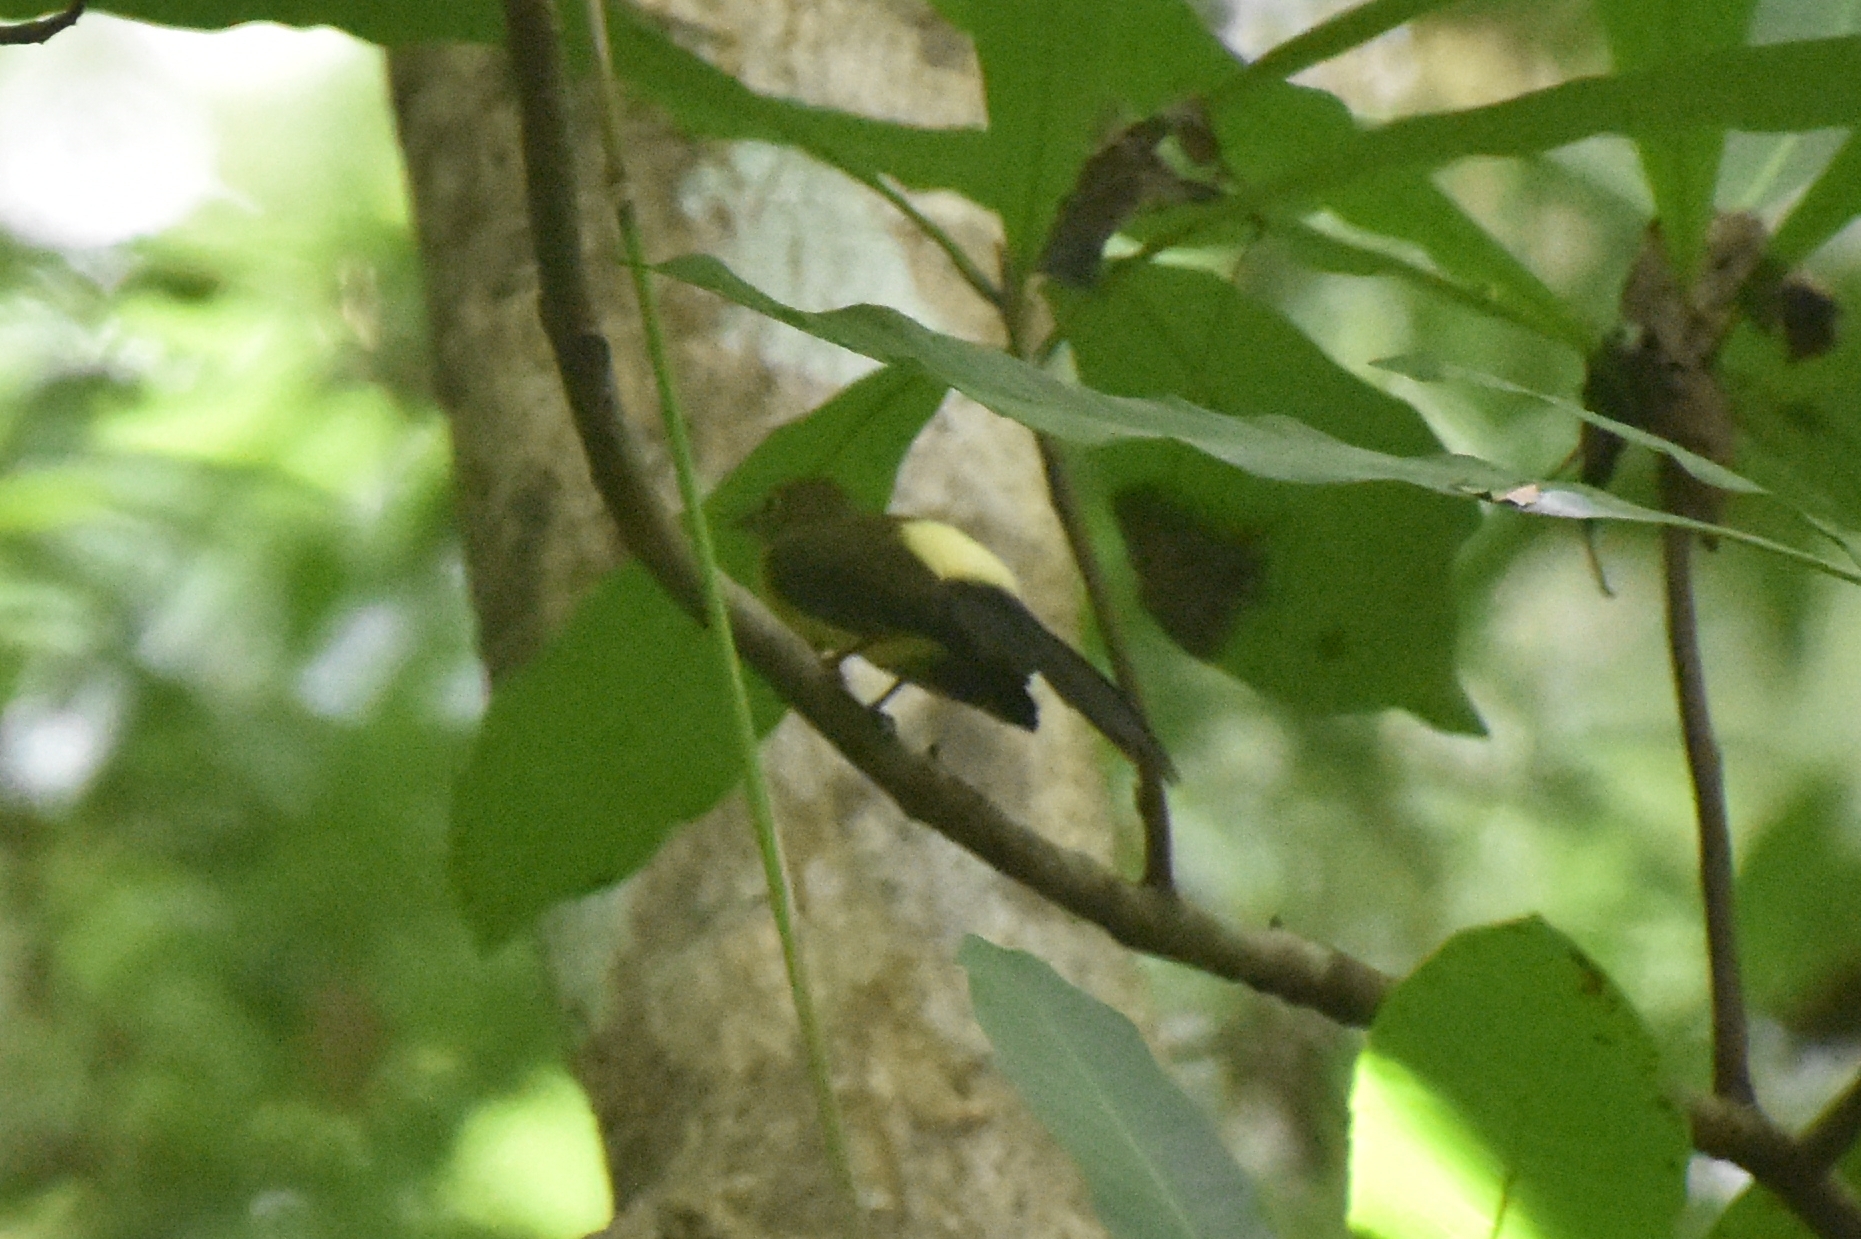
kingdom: Animalia
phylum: Chordata
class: Aves
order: Passeriformes
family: Tyrannidae
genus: Myiobius
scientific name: Myiobius atricaudus
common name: Black-tailed flycatcher
